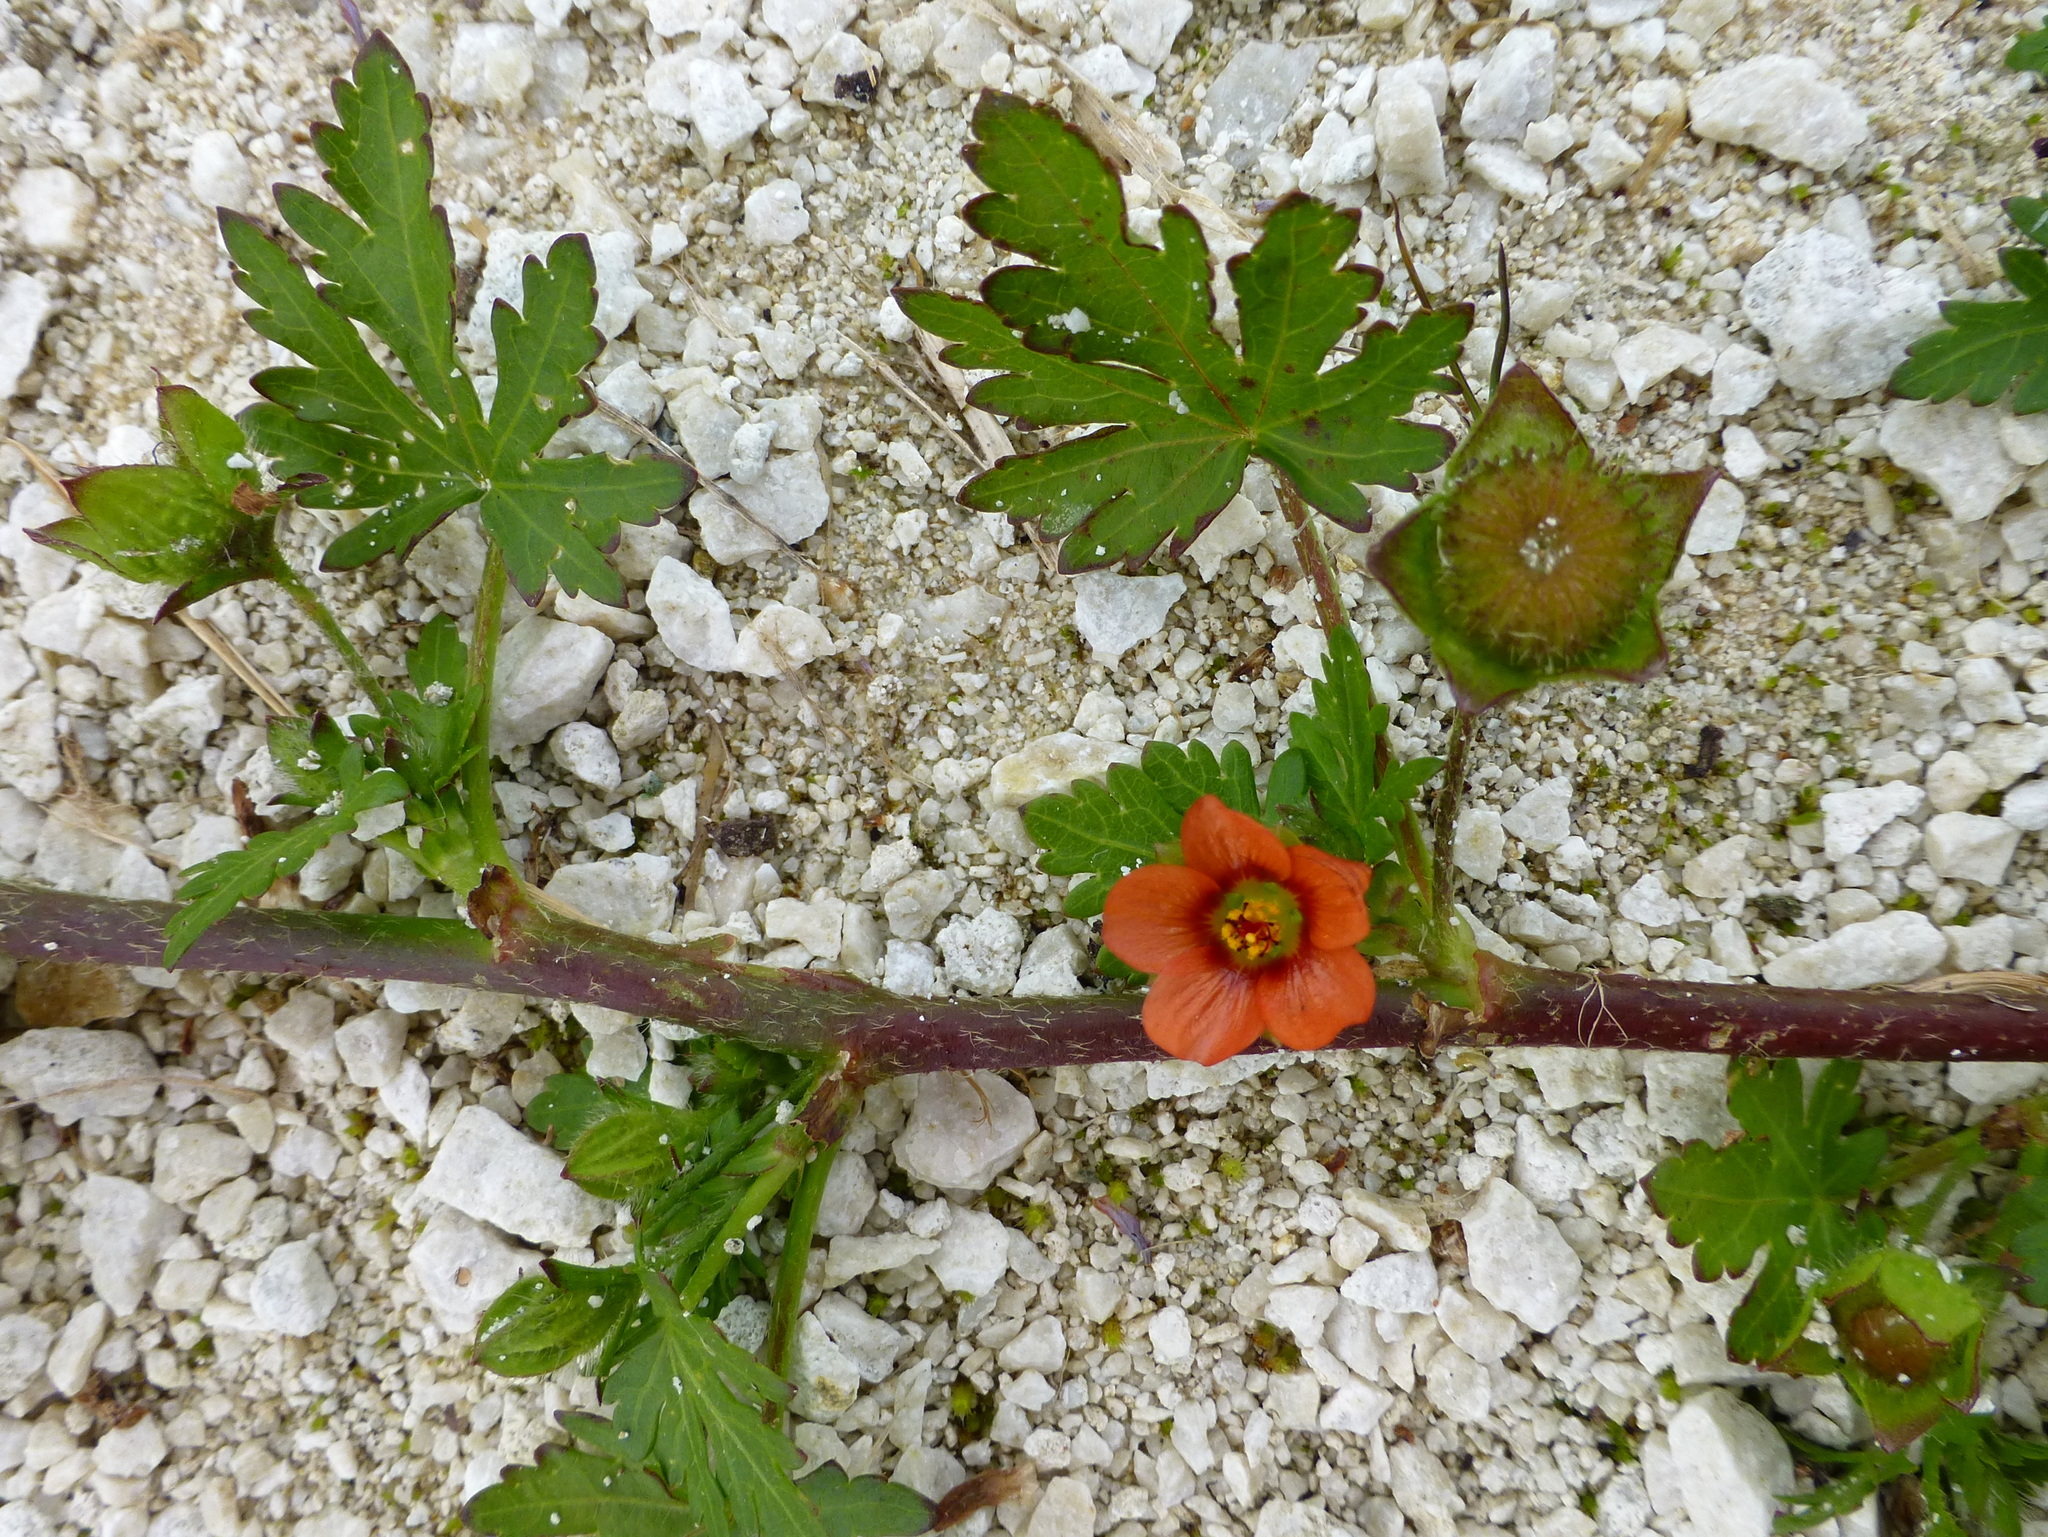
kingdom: Plantae
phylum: Tracheophyta
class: Magnoliopsida
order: Malvales
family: Malvaceae
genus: Modiola
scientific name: Modiola caroliniana
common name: Carolina bristlemallow
